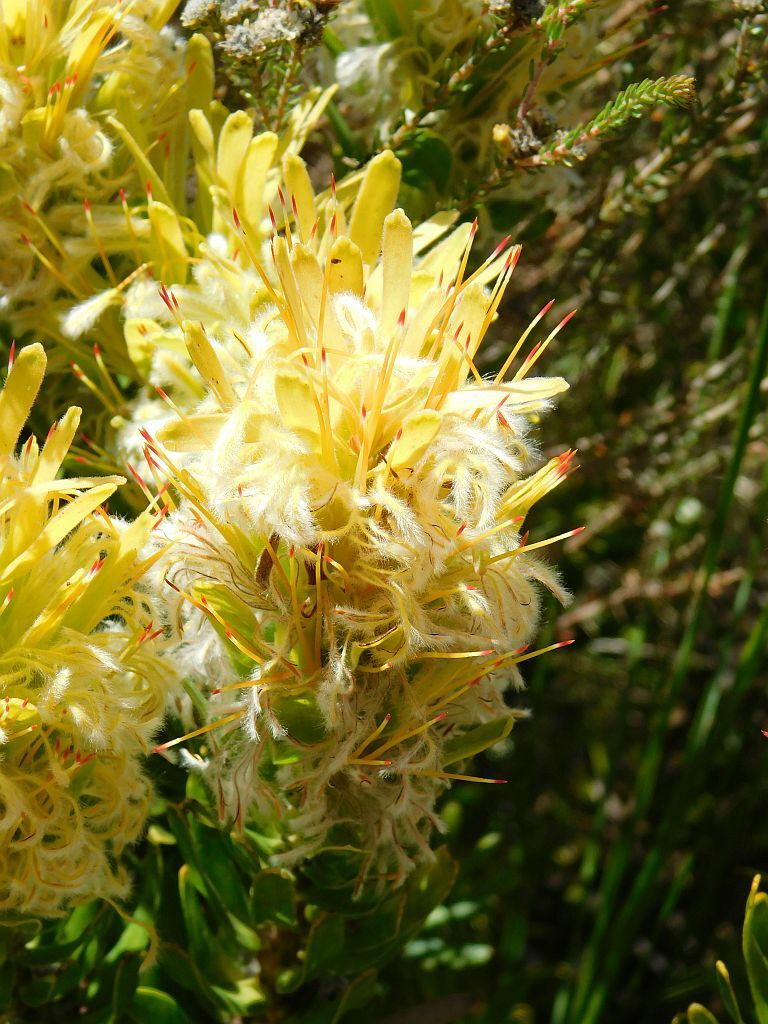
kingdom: Plantae
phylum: Tracheophyta
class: Magnoliopsida
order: Proteales
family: Proteaceae
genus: Mimetes
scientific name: Mimetes cucullatus
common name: Common pagoda
